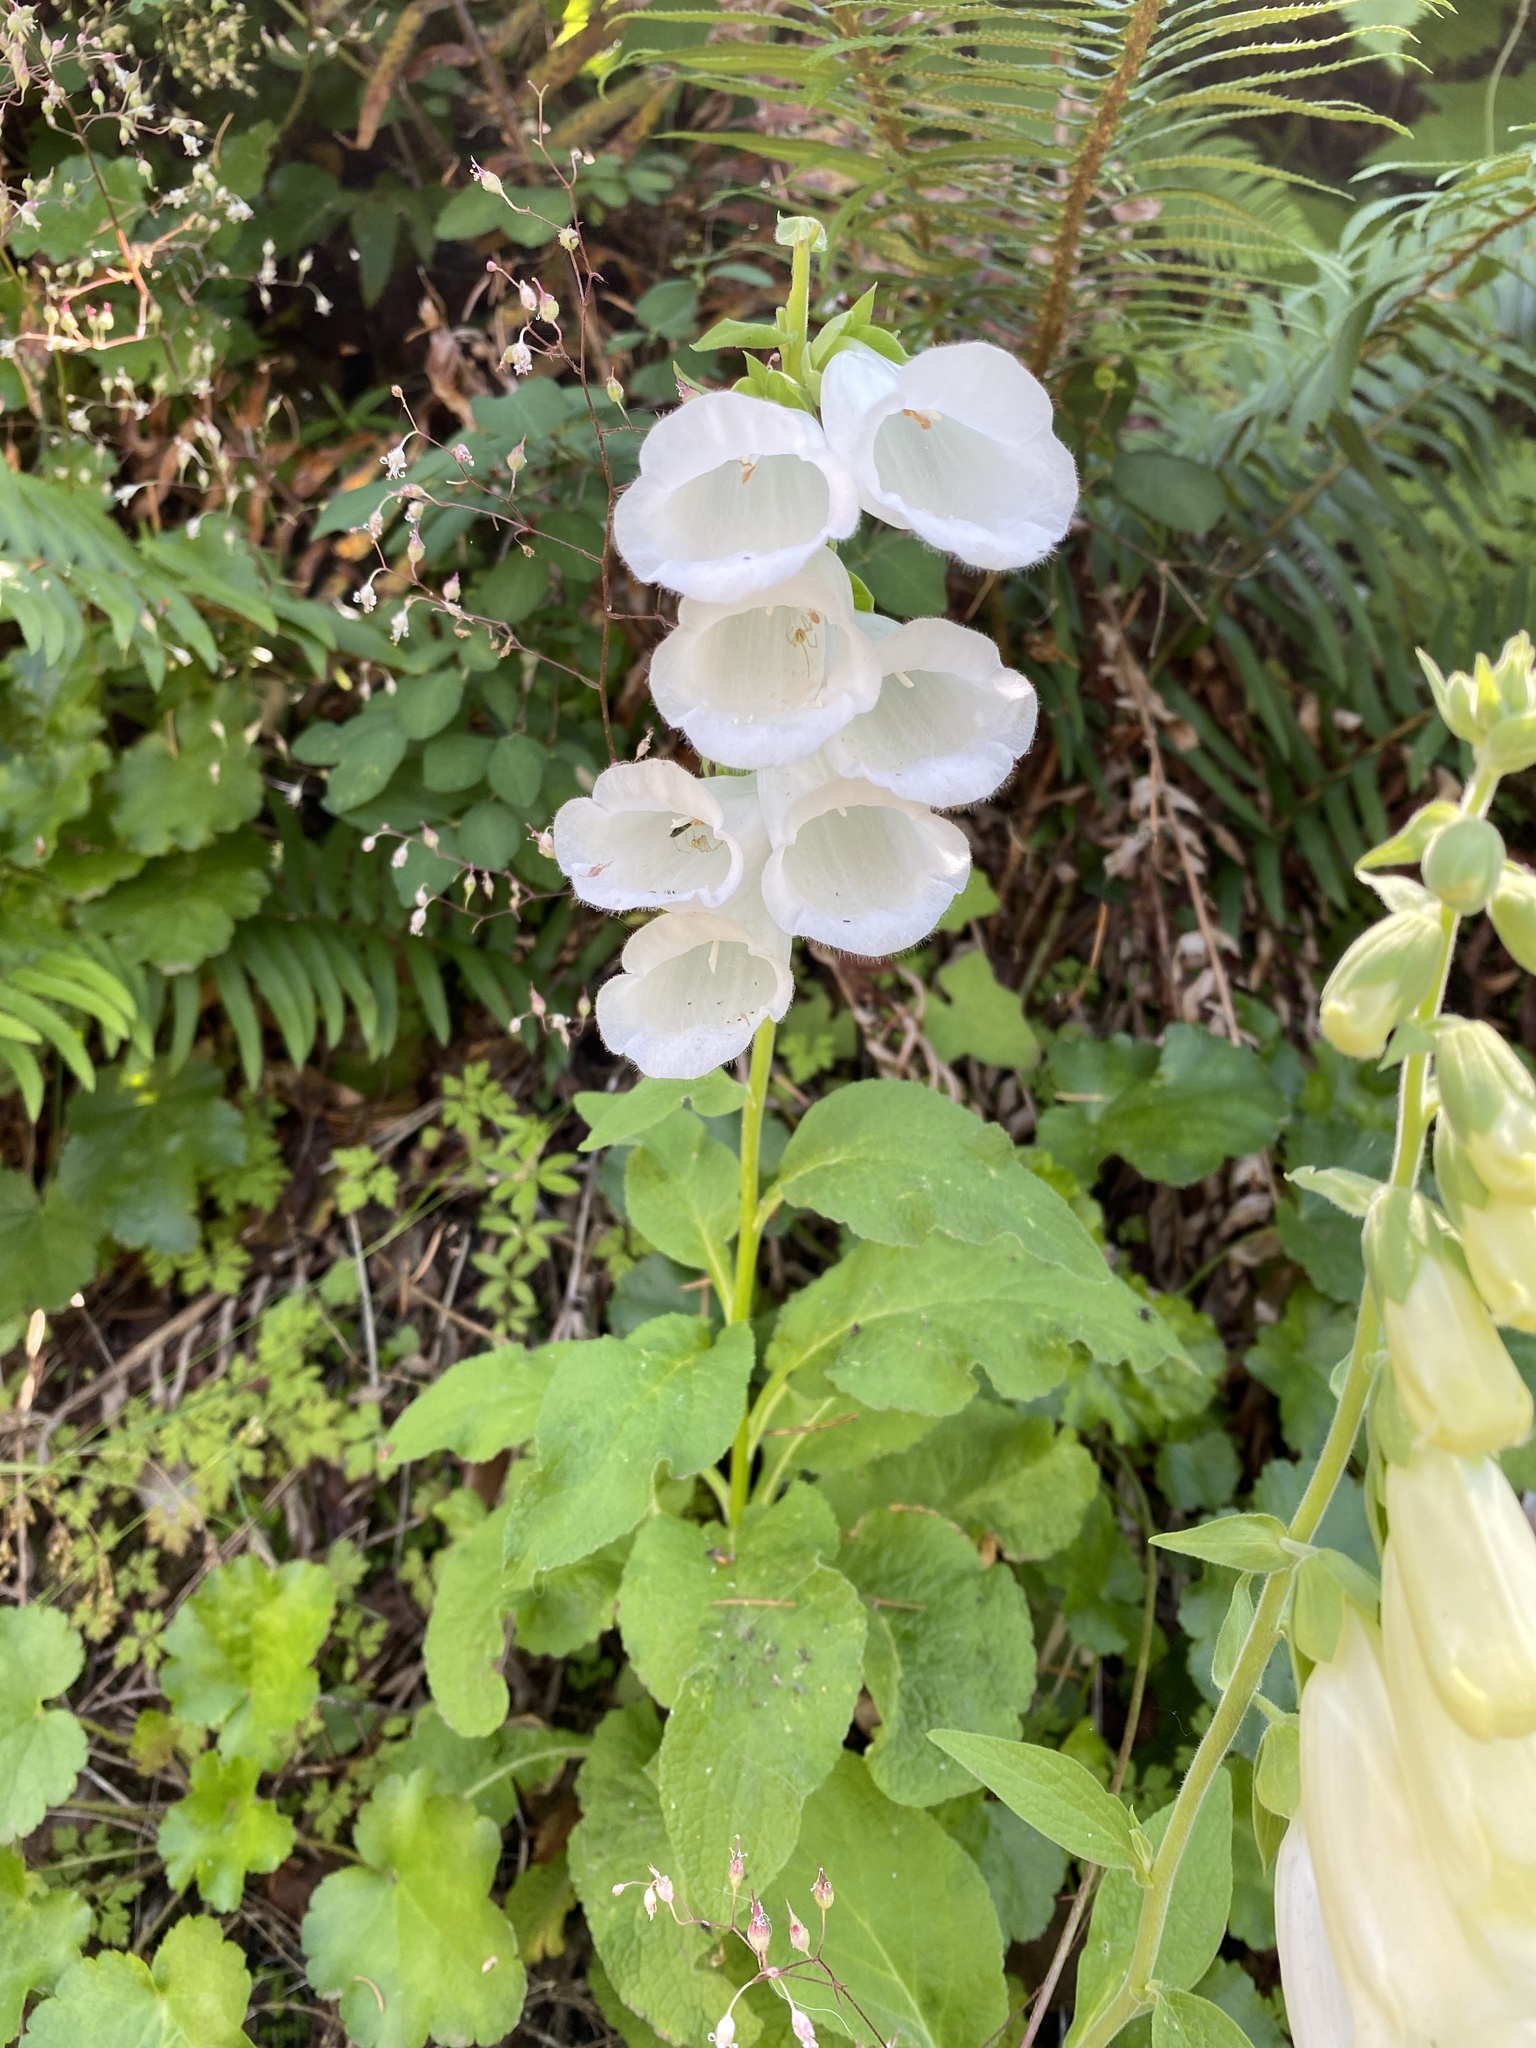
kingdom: Plantae
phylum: Tracheophyta
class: Magnoliopsida
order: Lamiales
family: Plantaginaceae
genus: Digitalis
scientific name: Digitalis purpurea
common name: Foxglove
